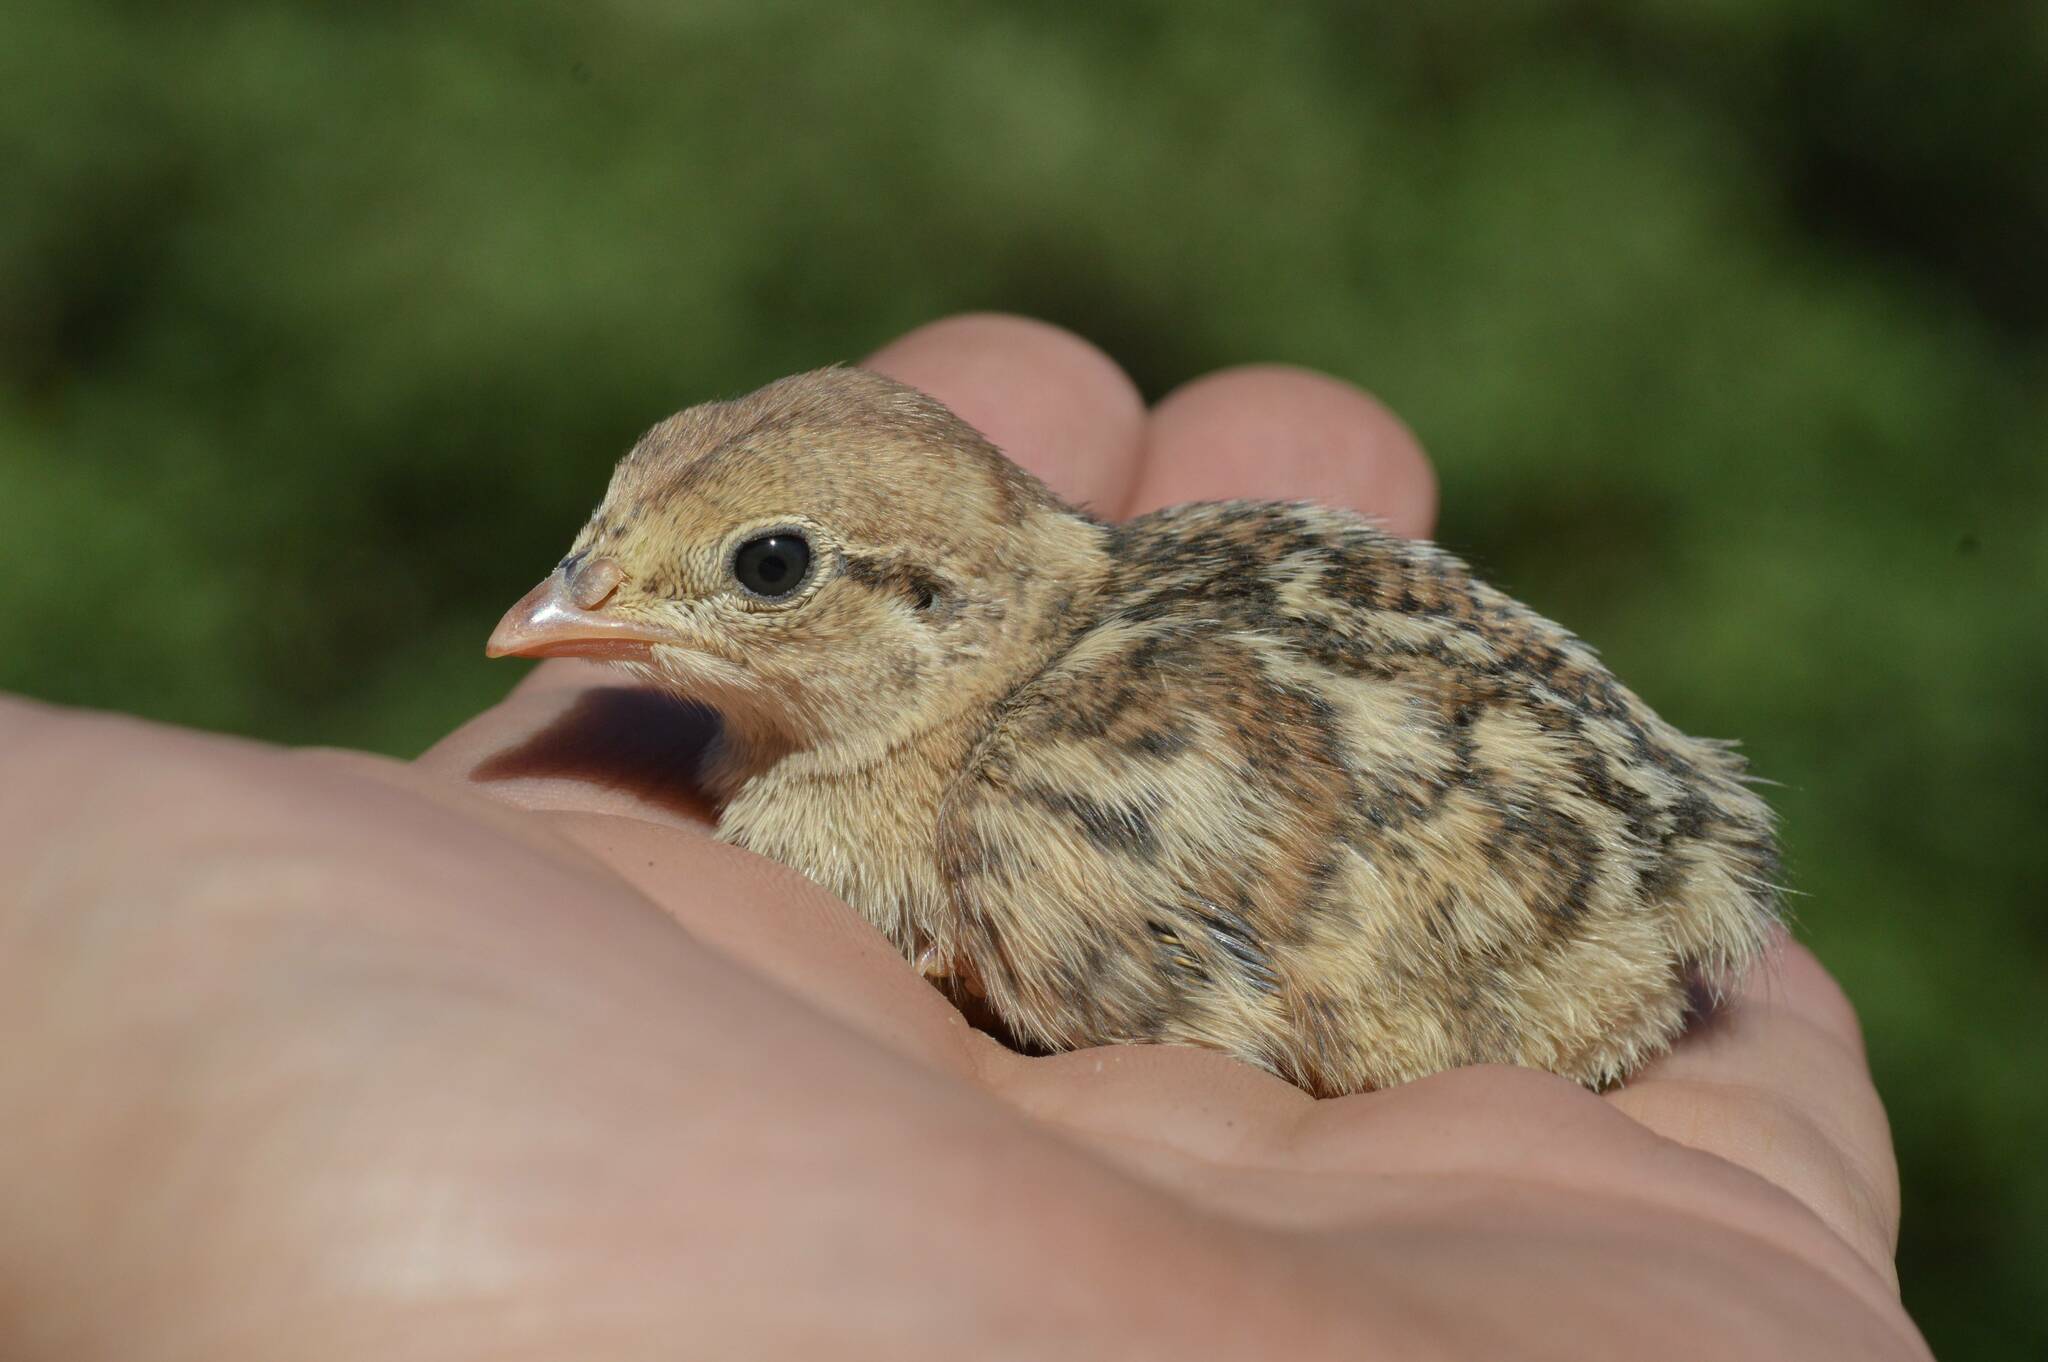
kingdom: Animalia
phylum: Chordata
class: Aves
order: Galliformes
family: Phasianidae
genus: Alectoris
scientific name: Alectoris barbara
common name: Barbary partridge
